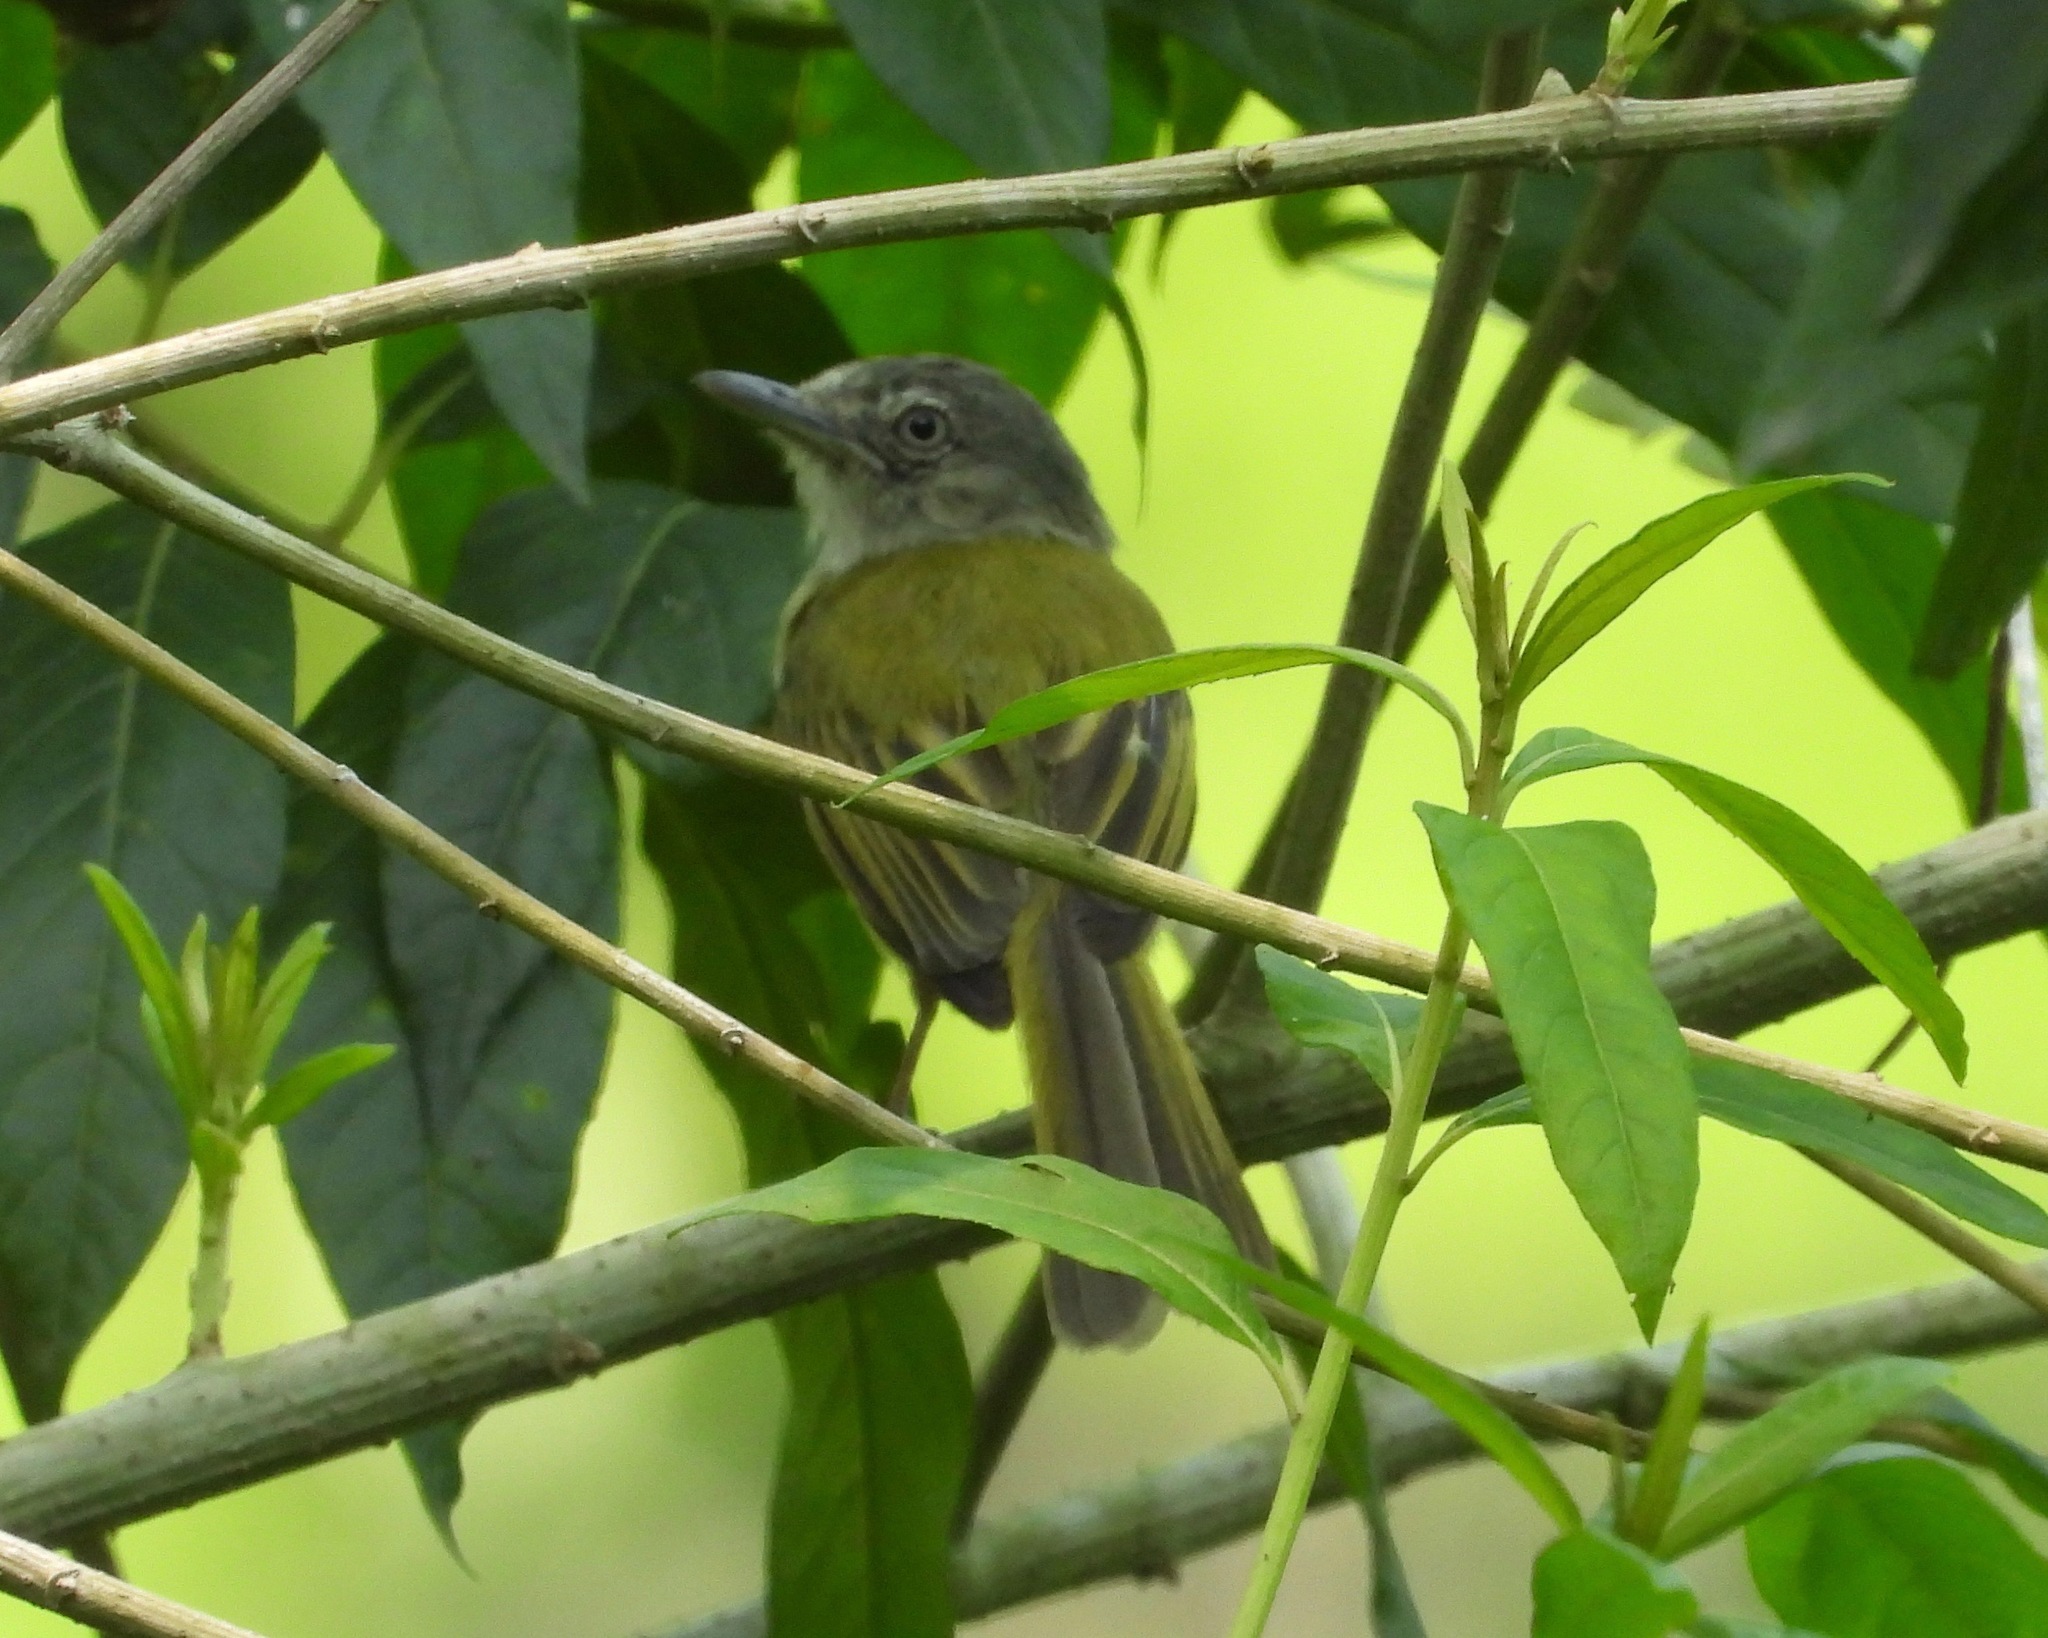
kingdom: Animalia
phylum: Chordata
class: Aves
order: Passeriformes
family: Tyrannidae
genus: Tolmomyias
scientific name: Tolmomyias sulphurescens
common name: Yellow-olive flycatcher
